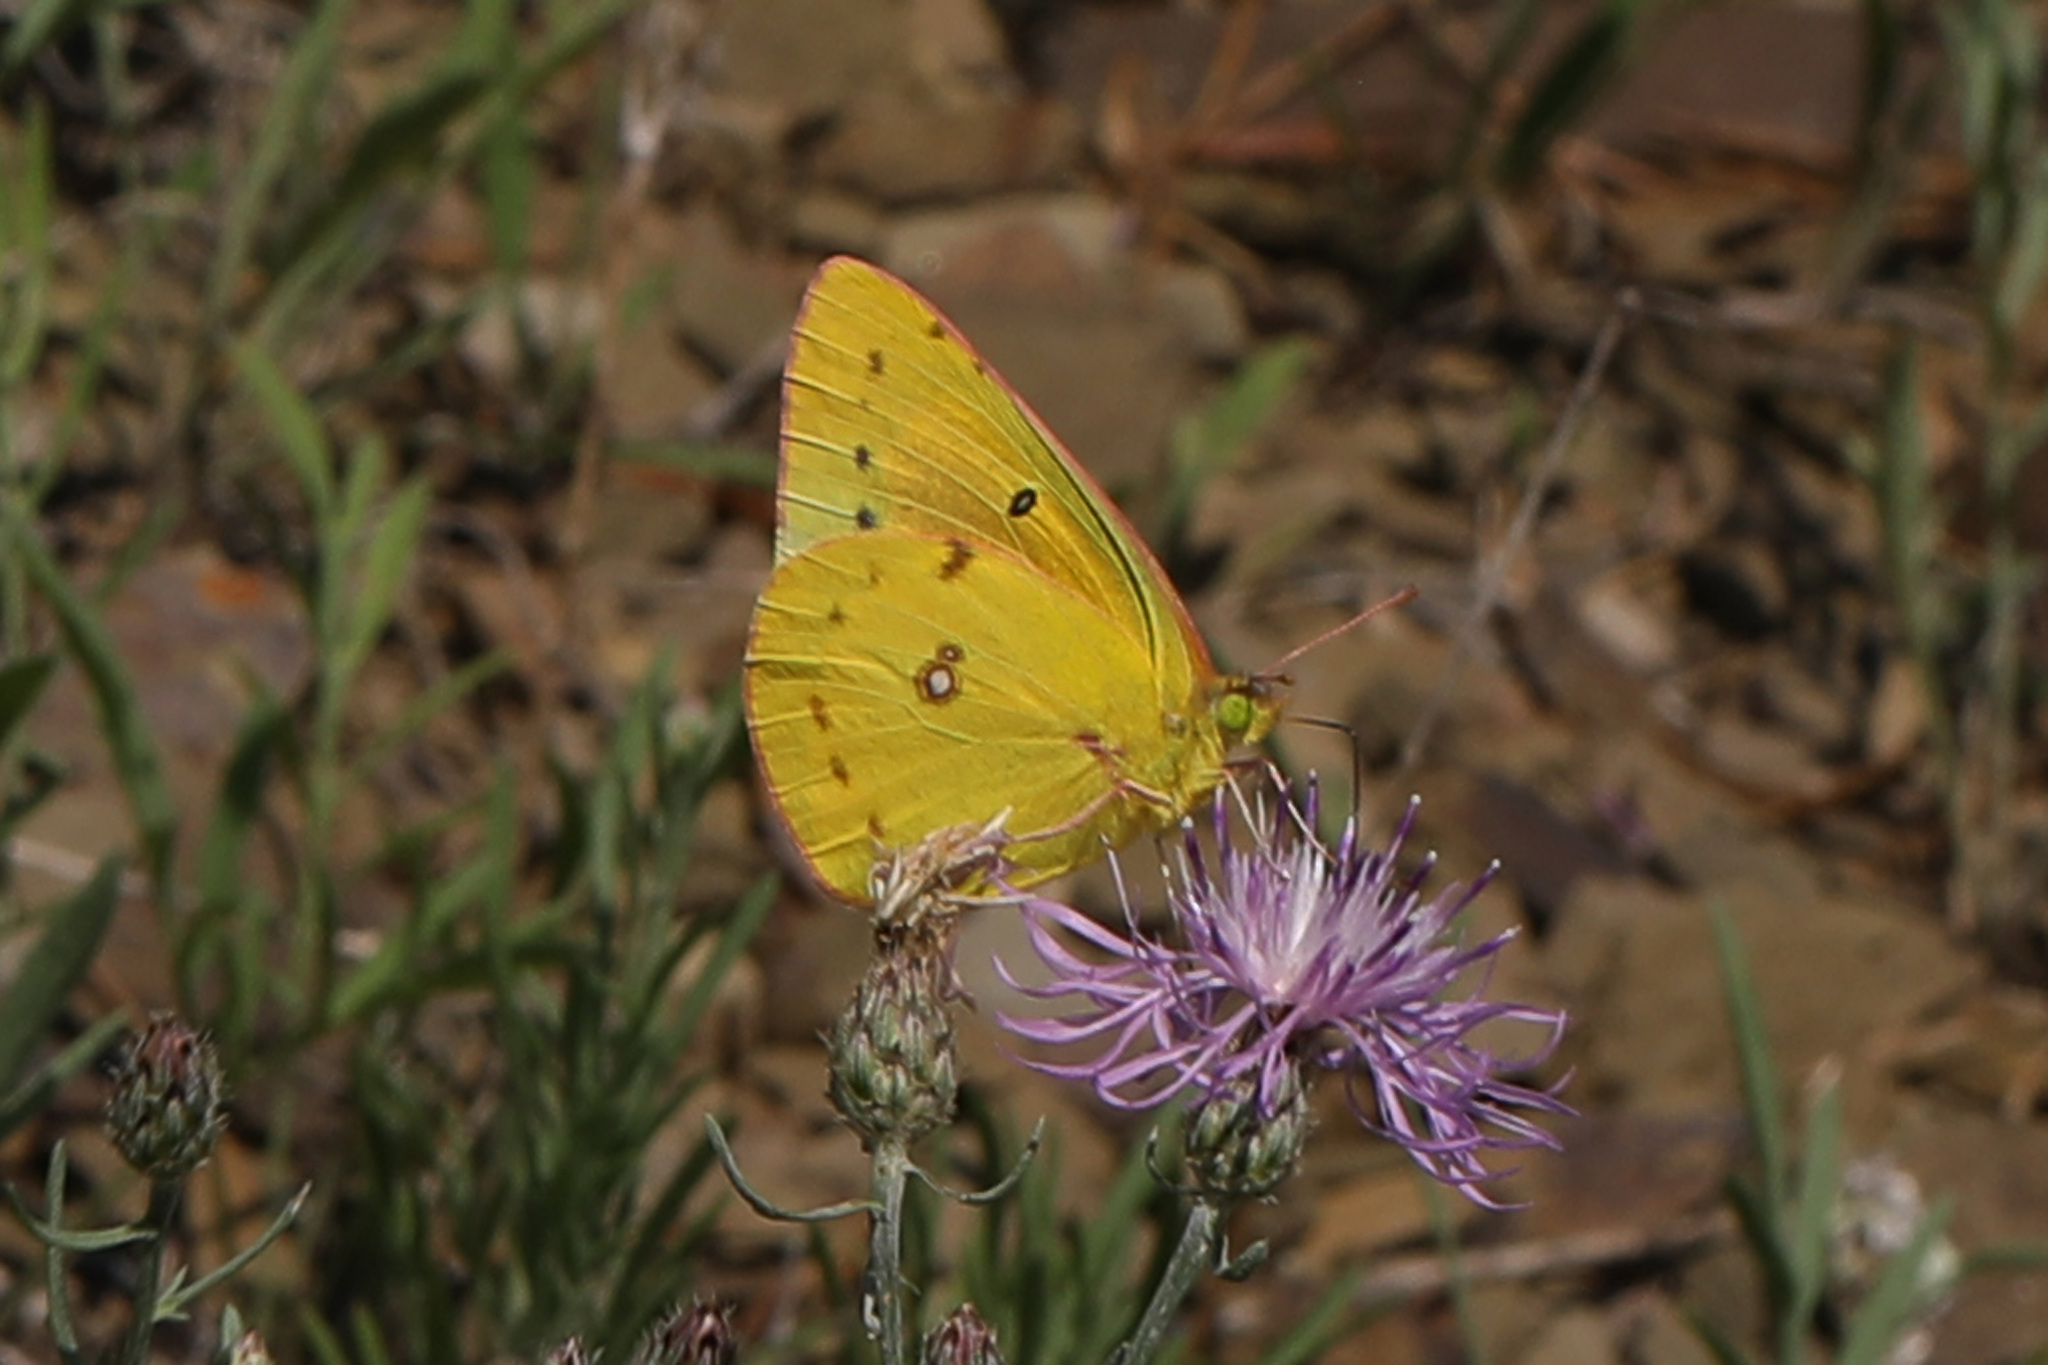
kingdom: Animalia
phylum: Arthropoda
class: Insecta
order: Lepidoptera
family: Pieridae
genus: Colias
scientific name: Colias eurytheme
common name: Alfalfa butterfly
